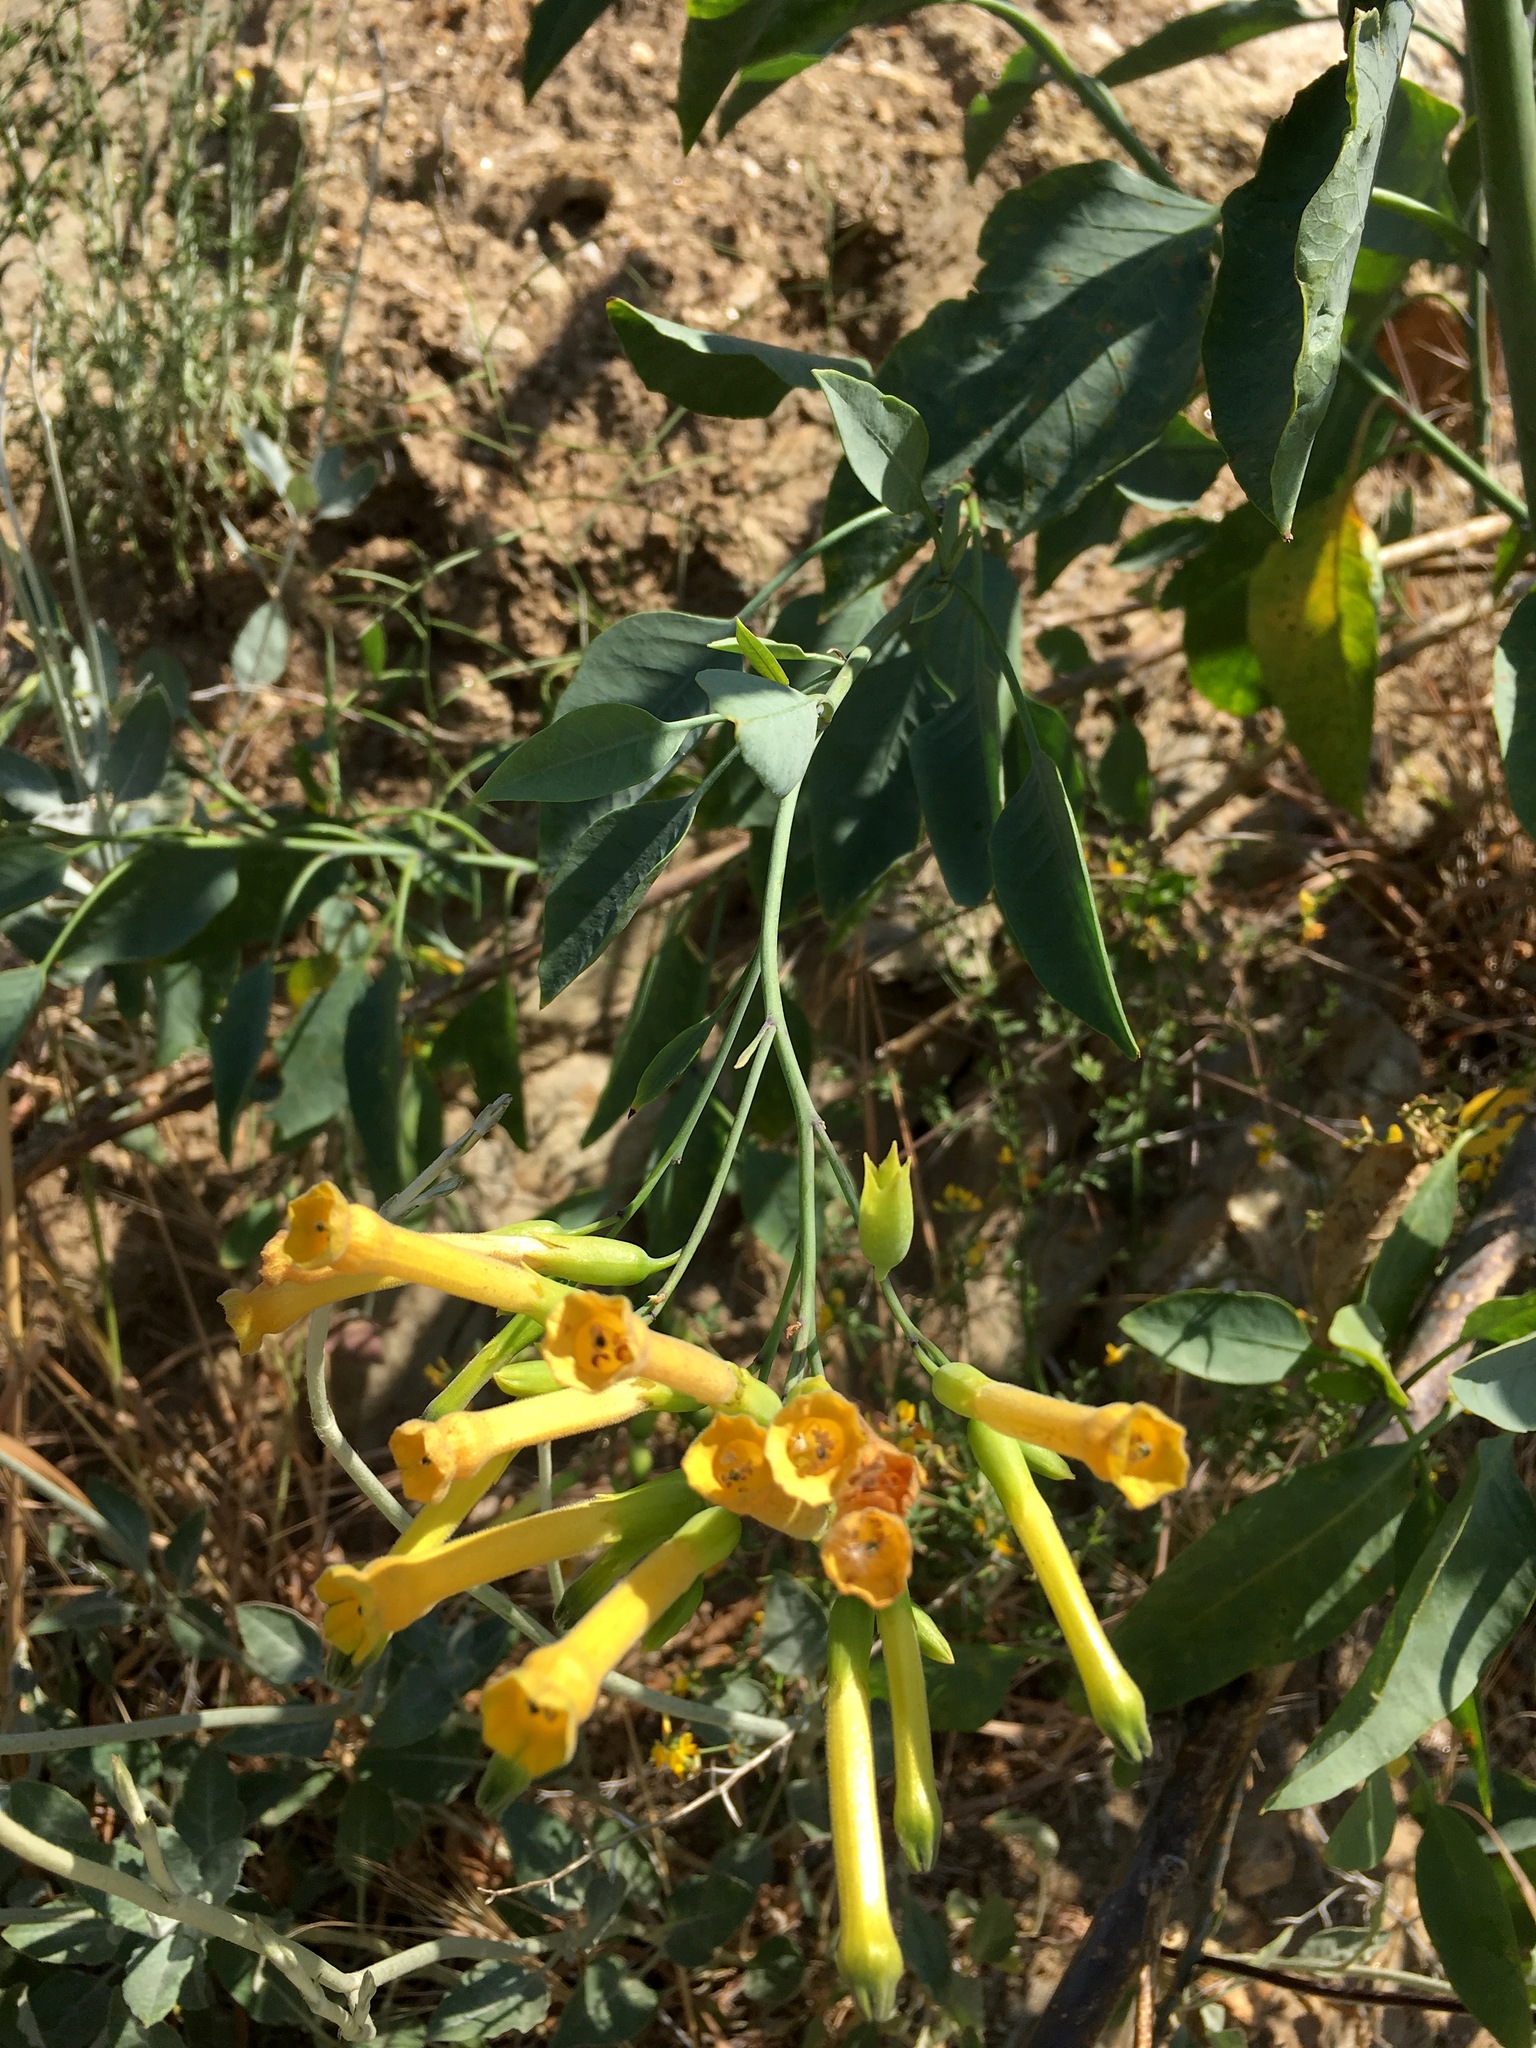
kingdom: Plantae
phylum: Tracheophyta
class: Magnoliopsida
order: Solanales
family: Solanaceae
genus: Nicotiana
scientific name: Nicotiana glauca
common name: Tree tobacco
